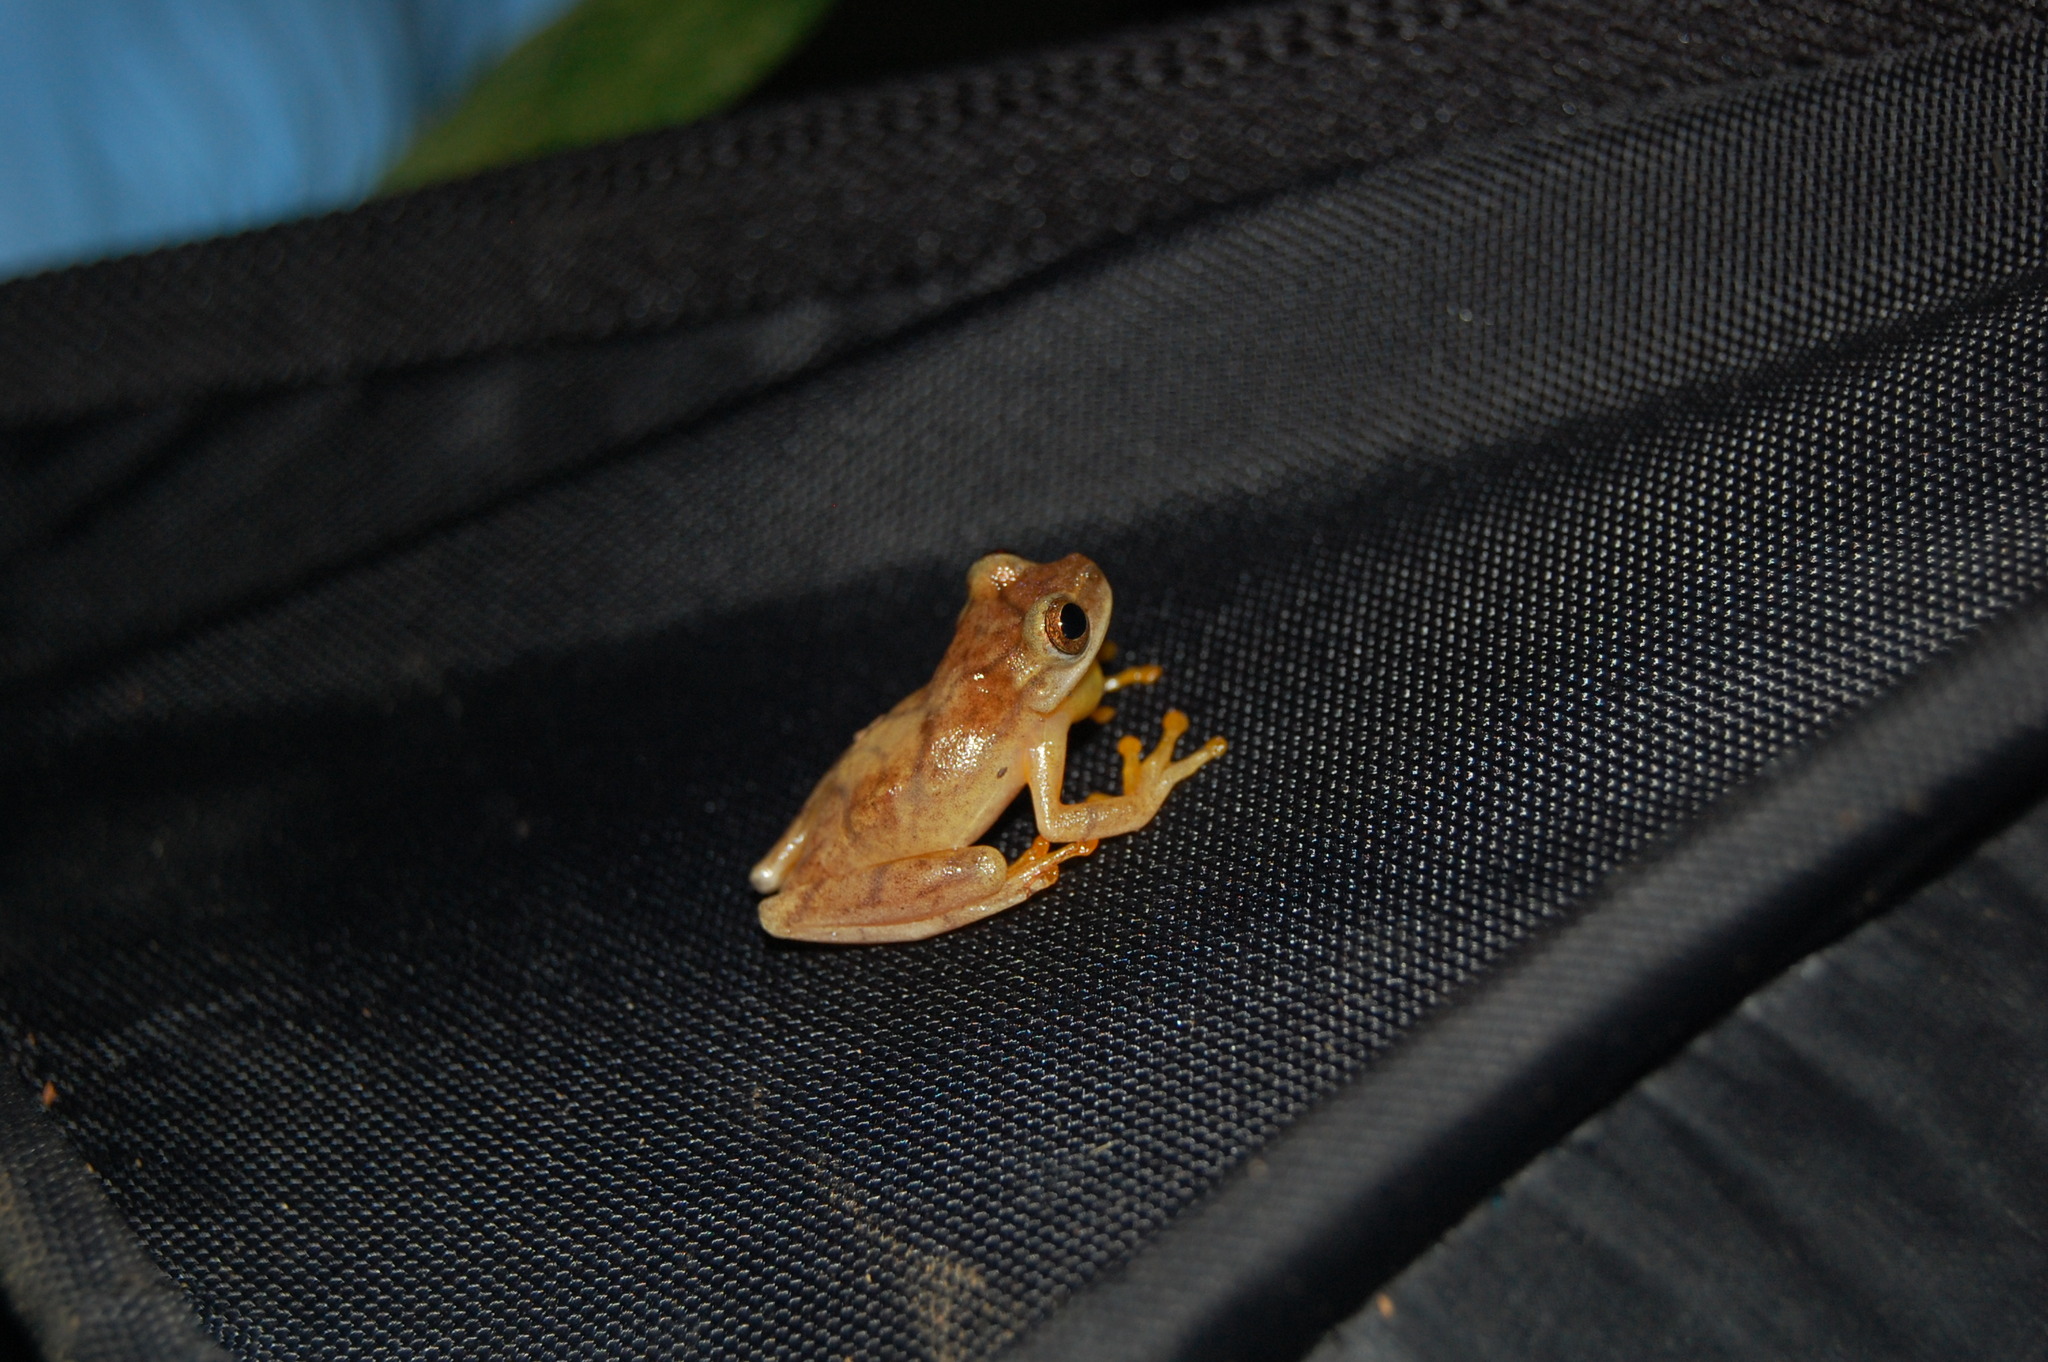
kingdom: Animalia
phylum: Chordata
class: Amphibia
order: Anura
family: Hylidae
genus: Dendropsophus
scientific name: Dendropsophus phlebodes
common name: San carlos treefrog
